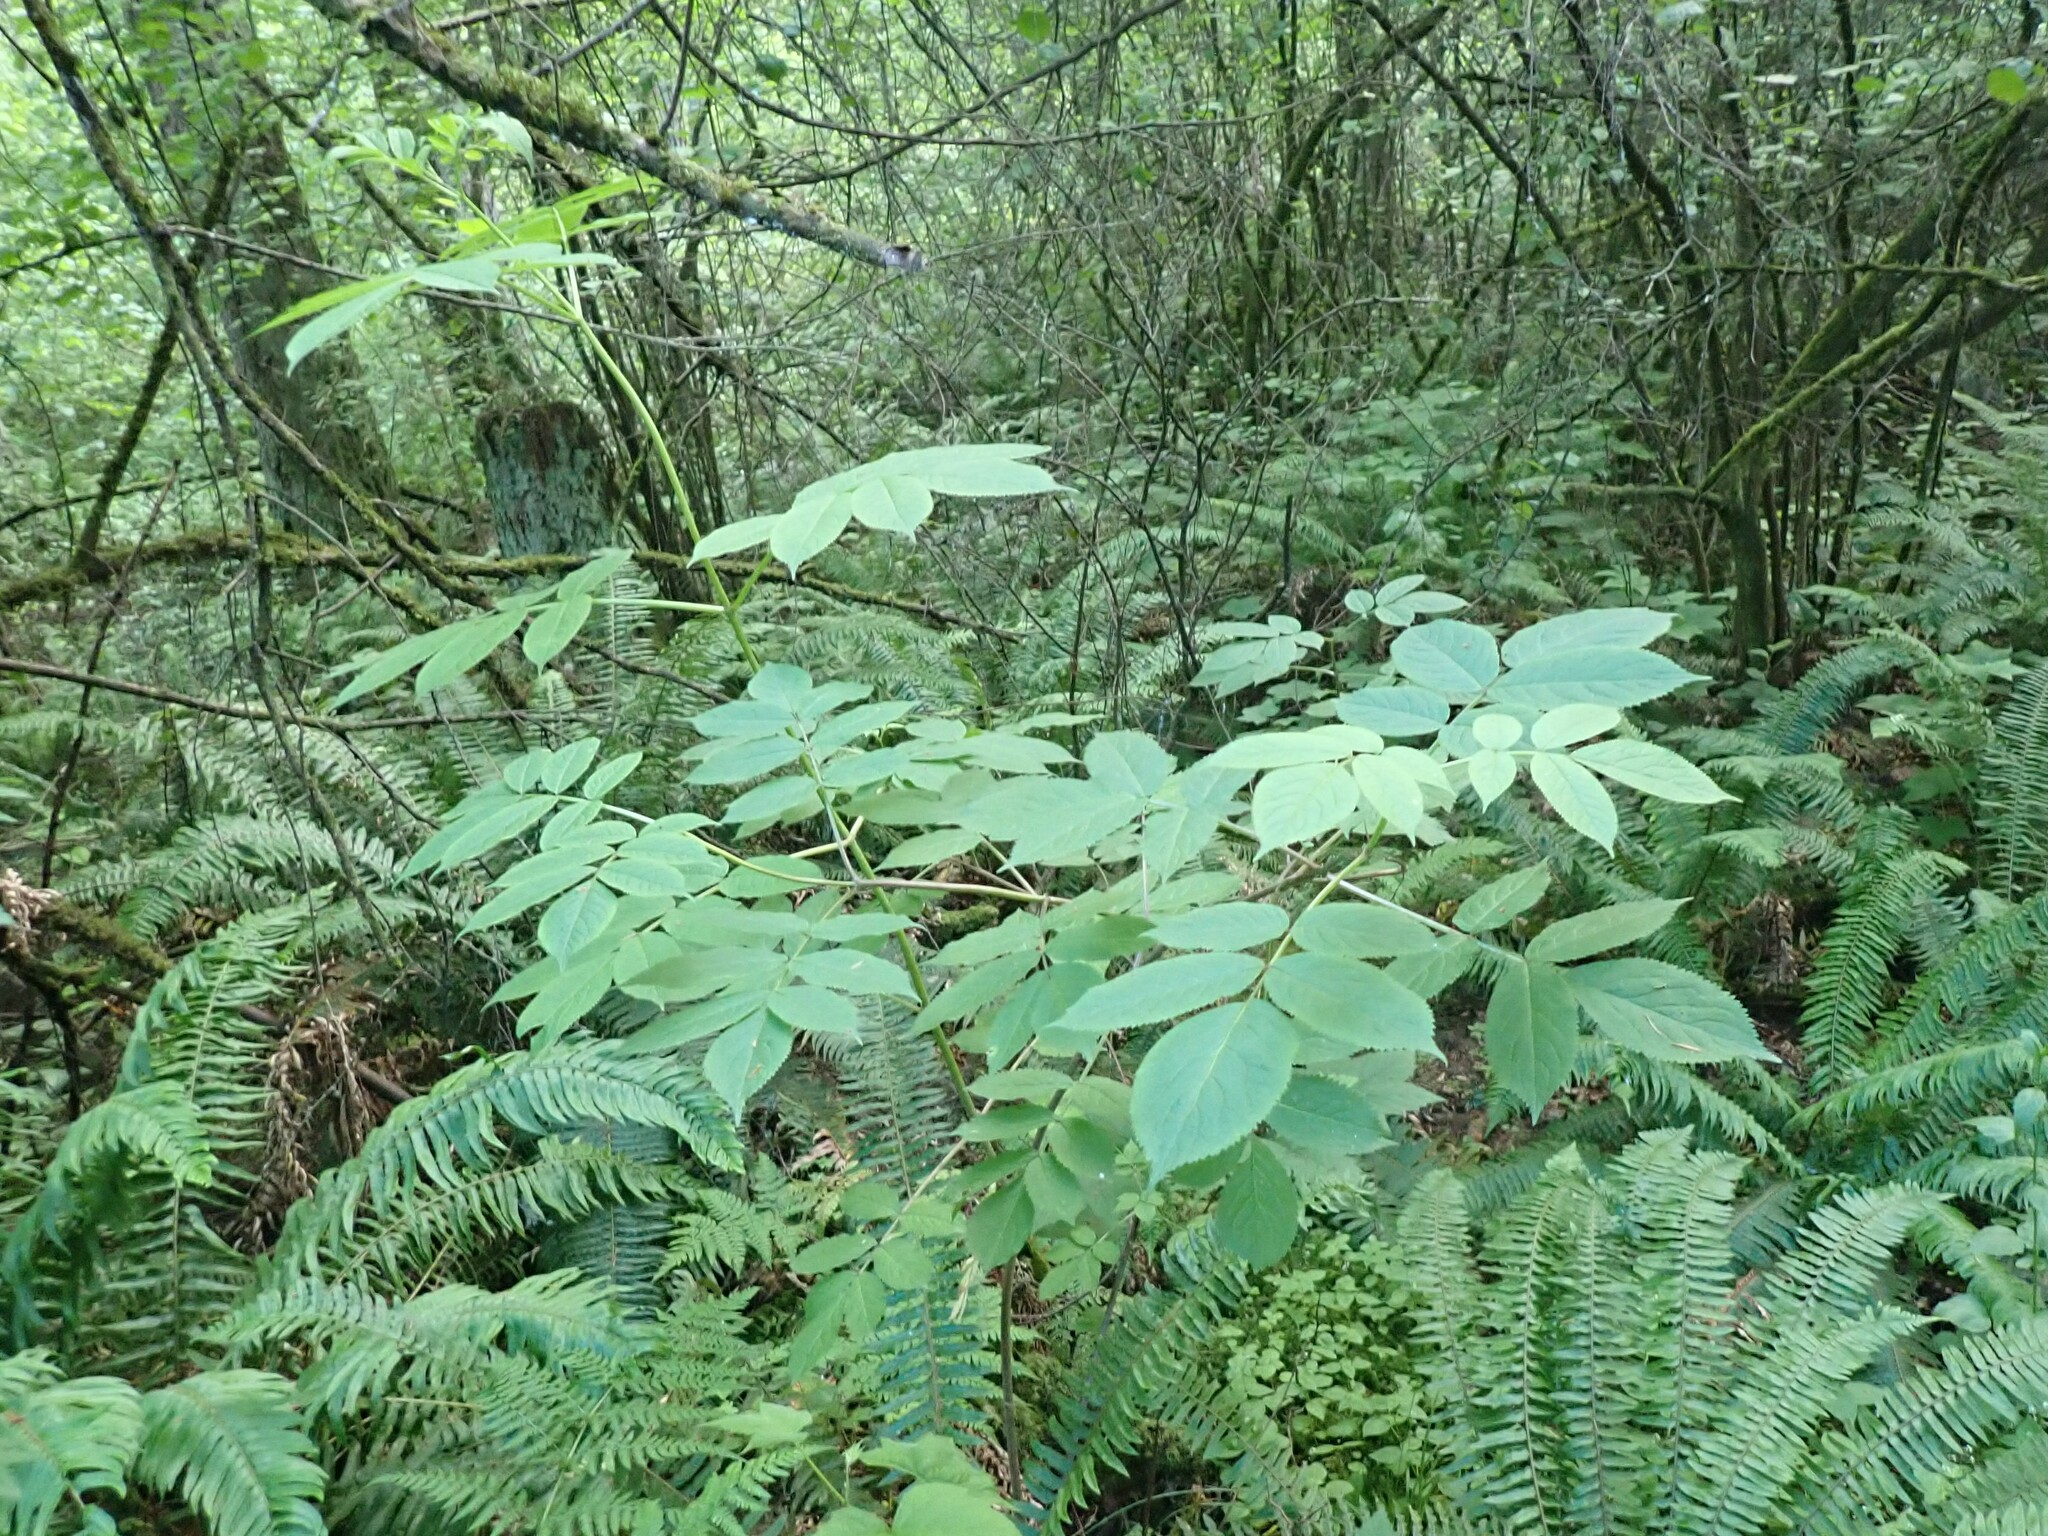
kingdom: Plantae
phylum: Tracheophyta
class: Magnoliopsida
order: Dipsacales
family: Viburnaceae
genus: Sambucus
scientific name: Sambucus racemosa
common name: Red-berried elder
